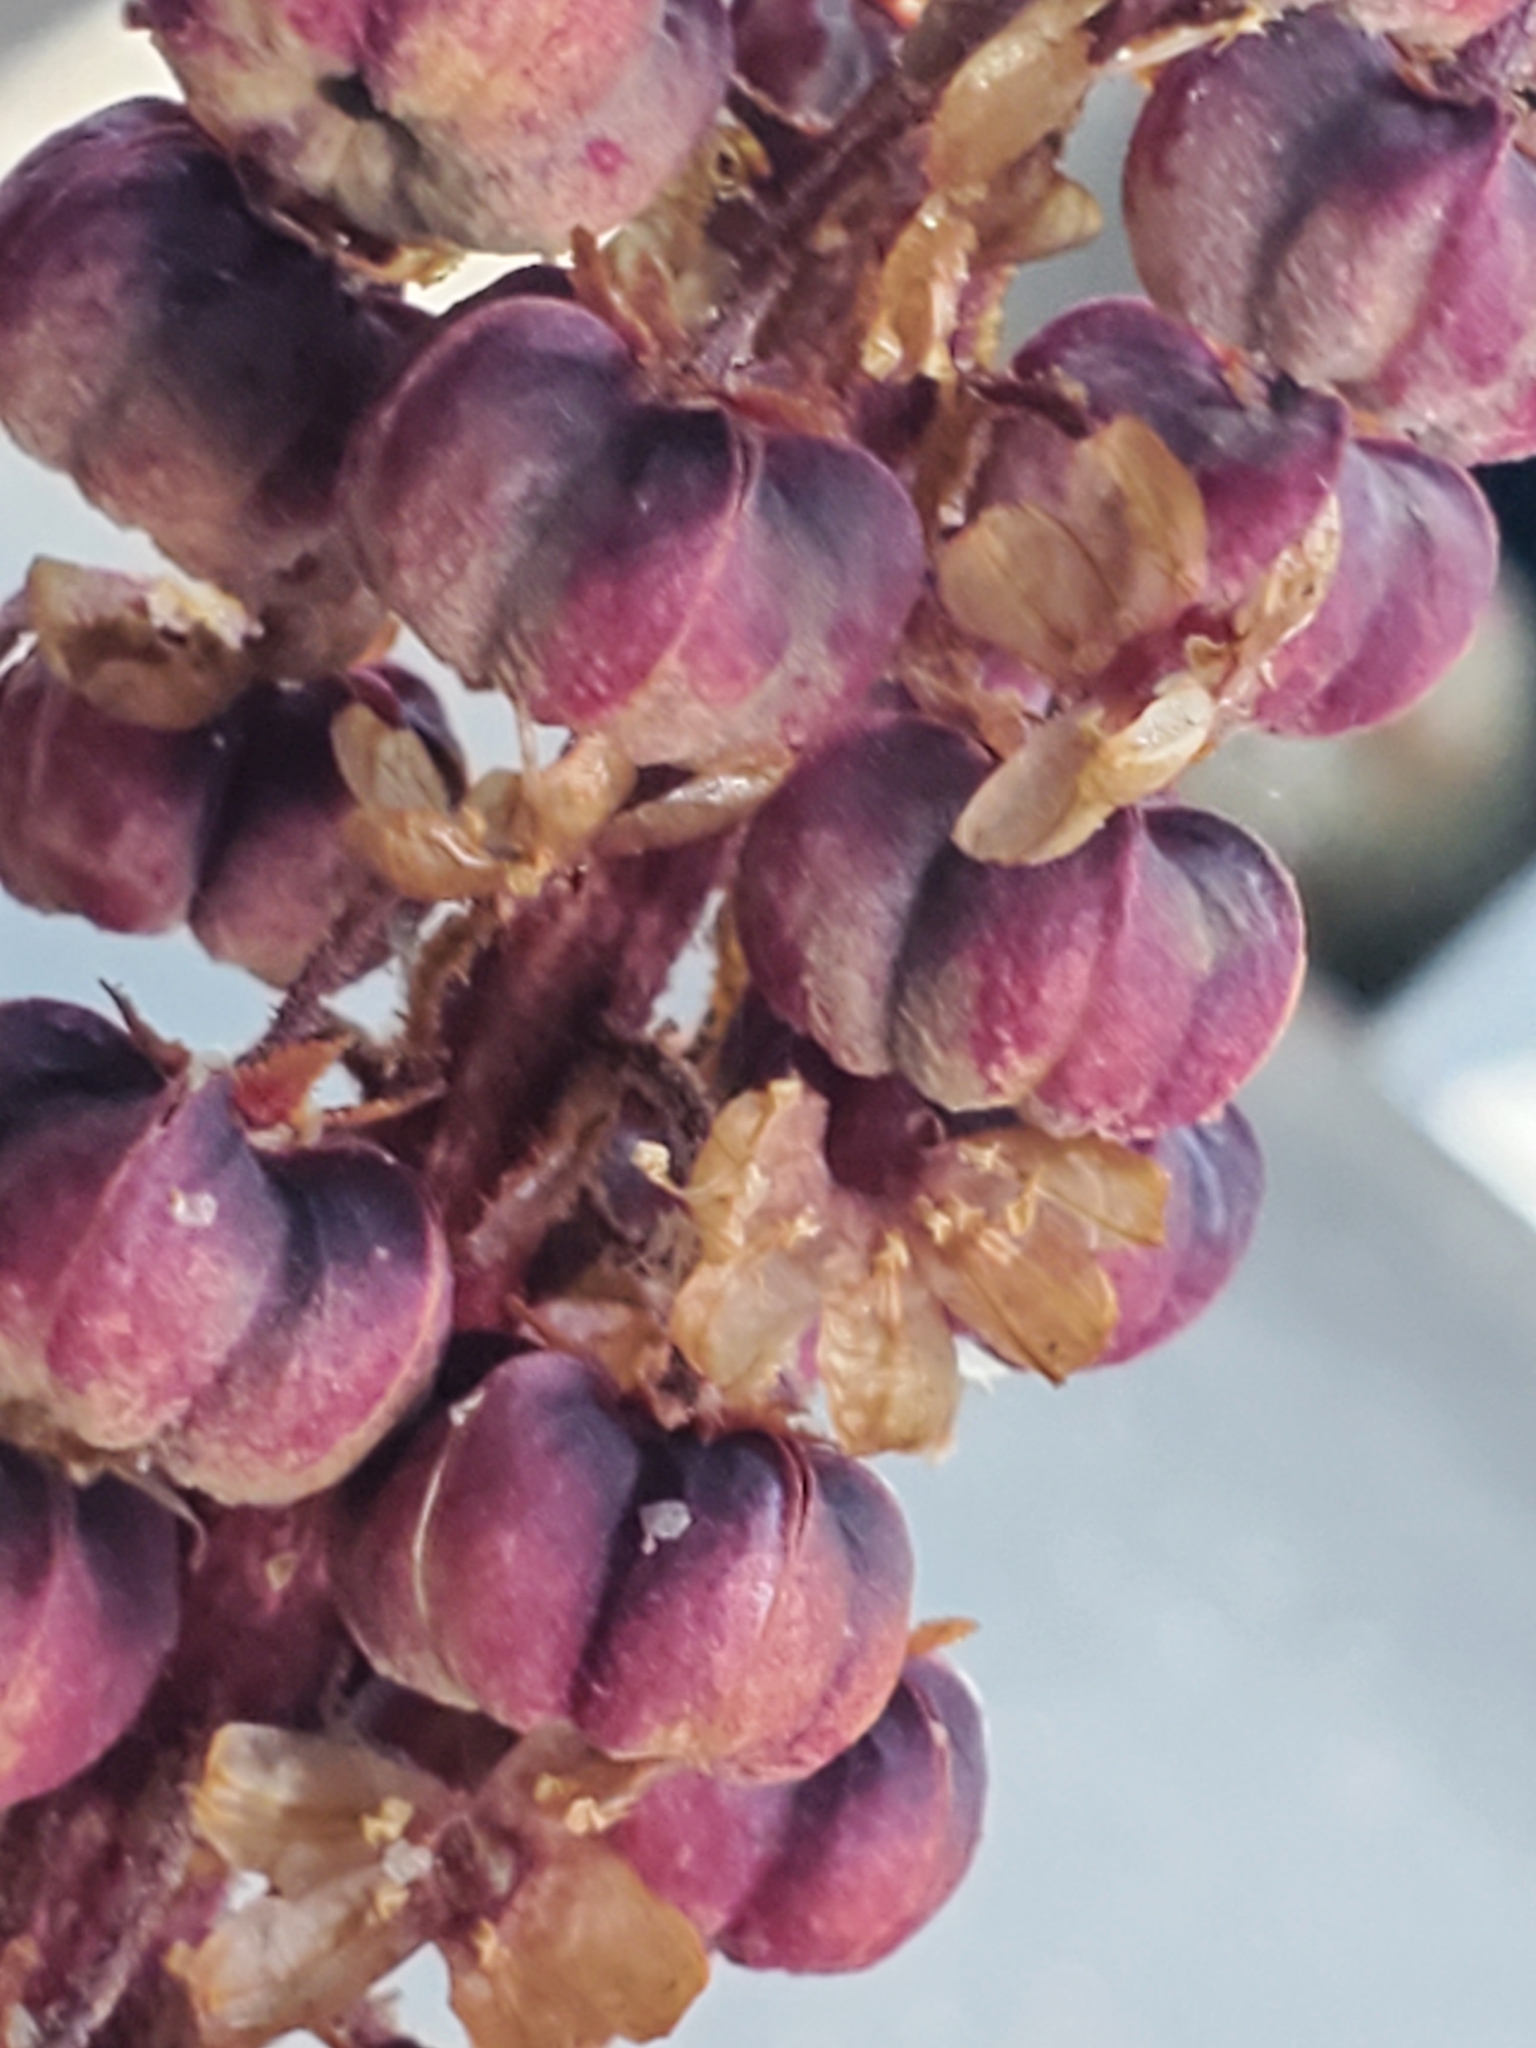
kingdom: Plantae
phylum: Tracheophyta
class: Magnoliopsida
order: Ericales
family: Ericaceae
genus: Pterospora
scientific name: Pterospora andromedea
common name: Giant bird's-nest
